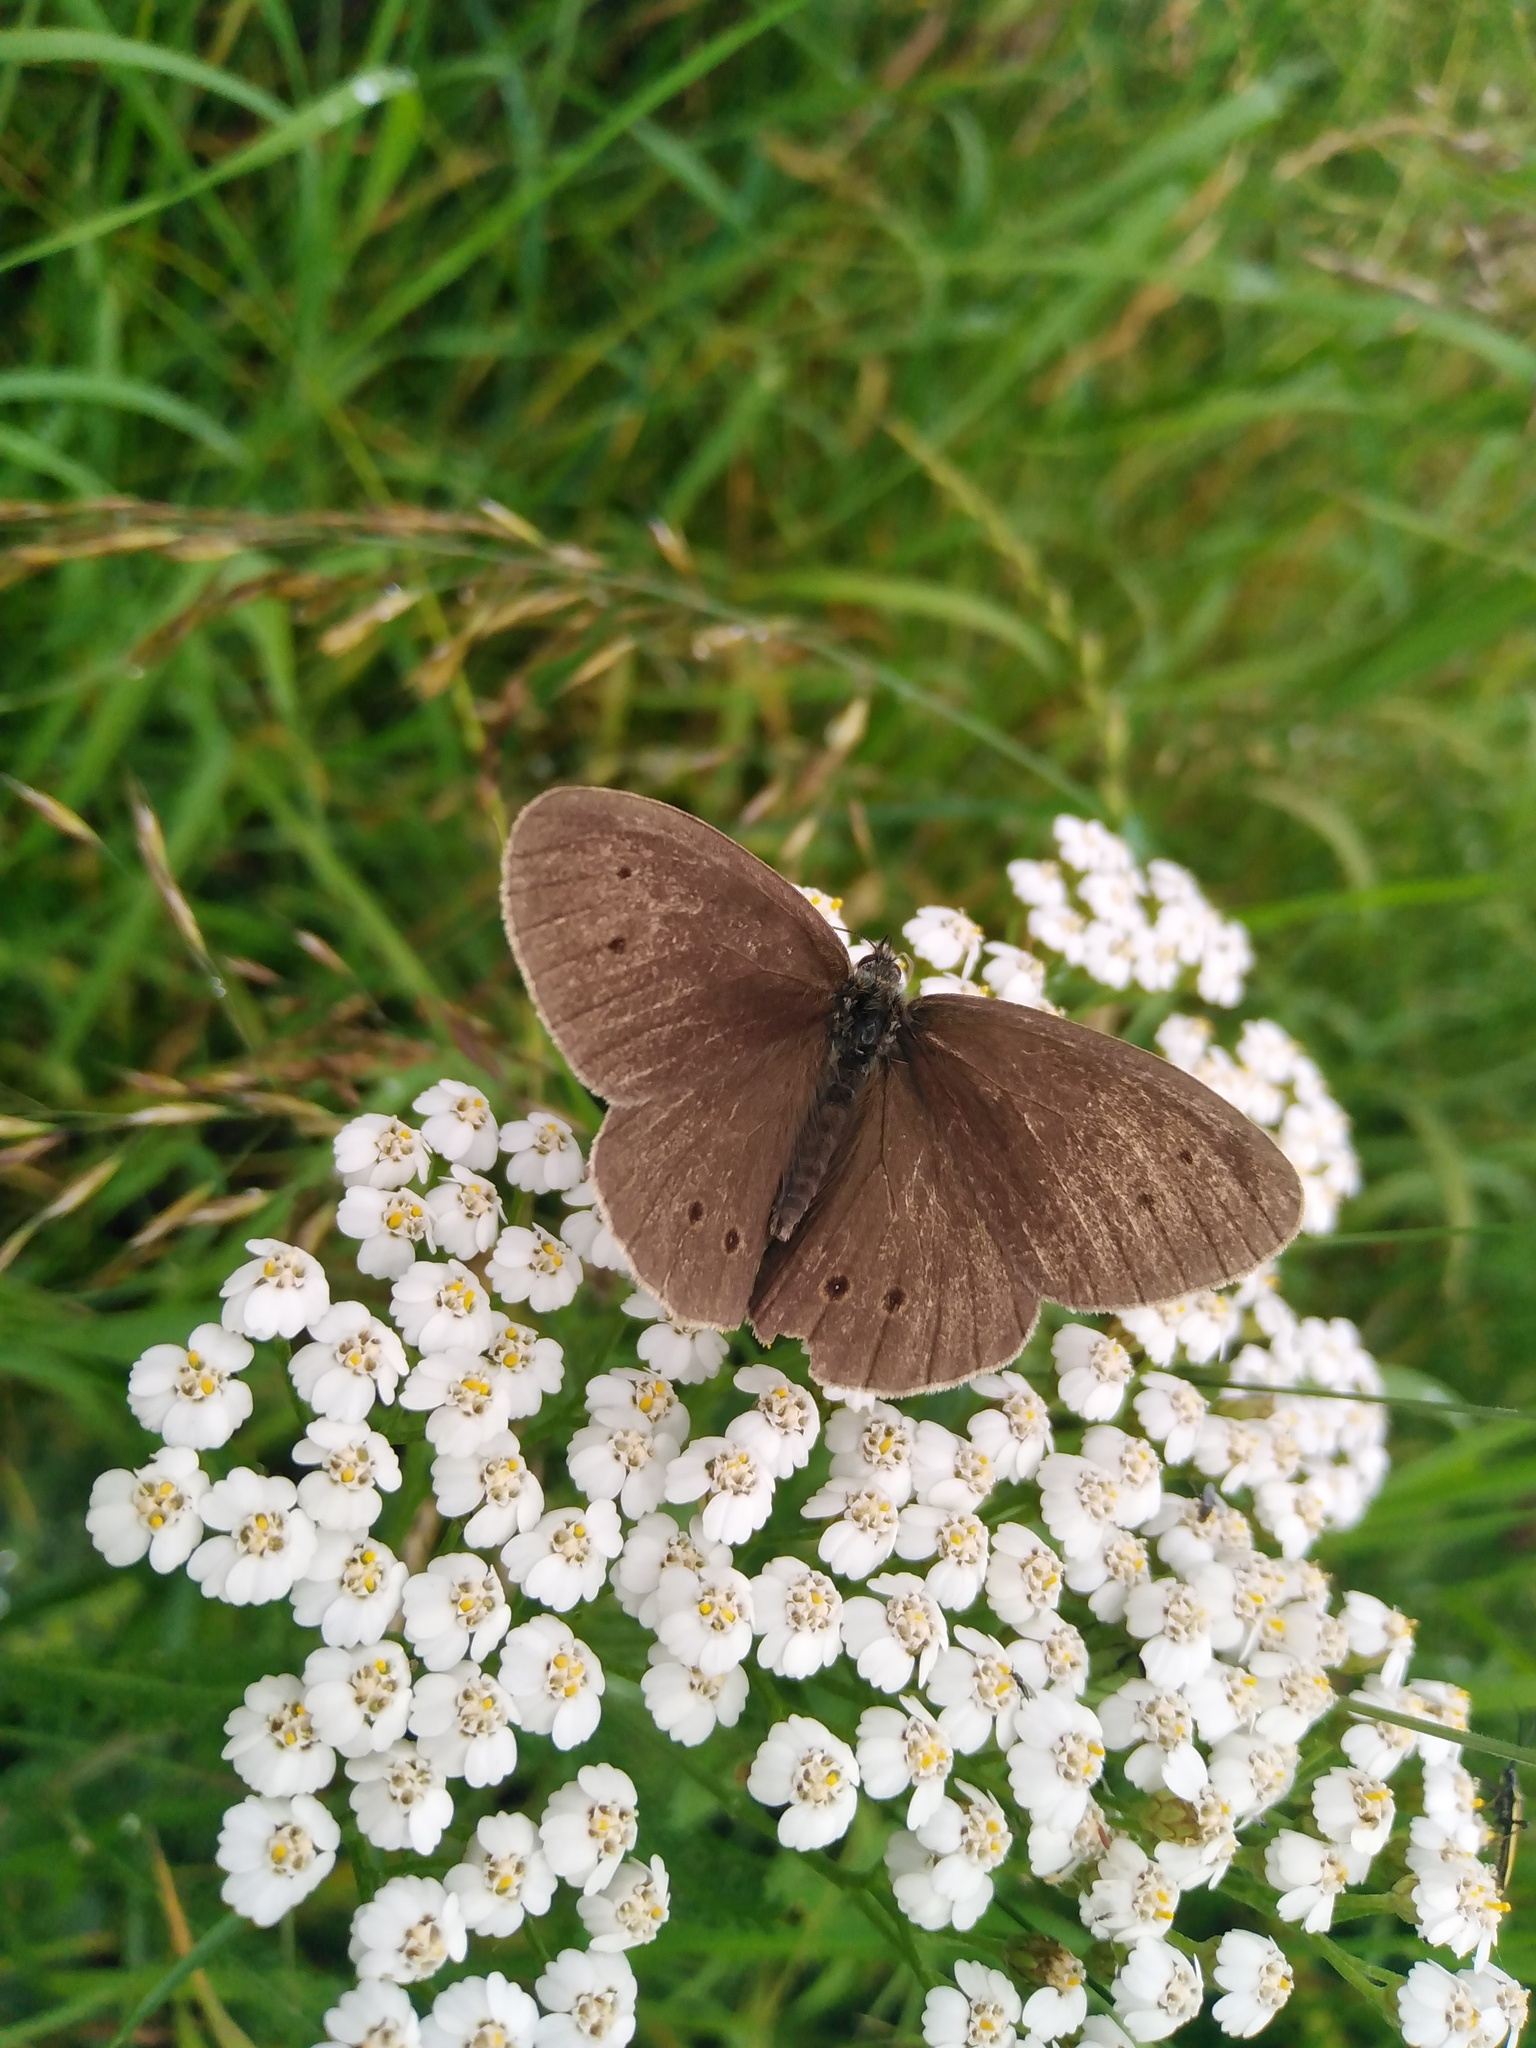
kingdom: Animalia
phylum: Arthropoda
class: Insecta
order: Lepidoptera
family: Nymphalidae
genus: Aphantopus
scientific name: Aphantopus hyperantus
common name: Ringlet
